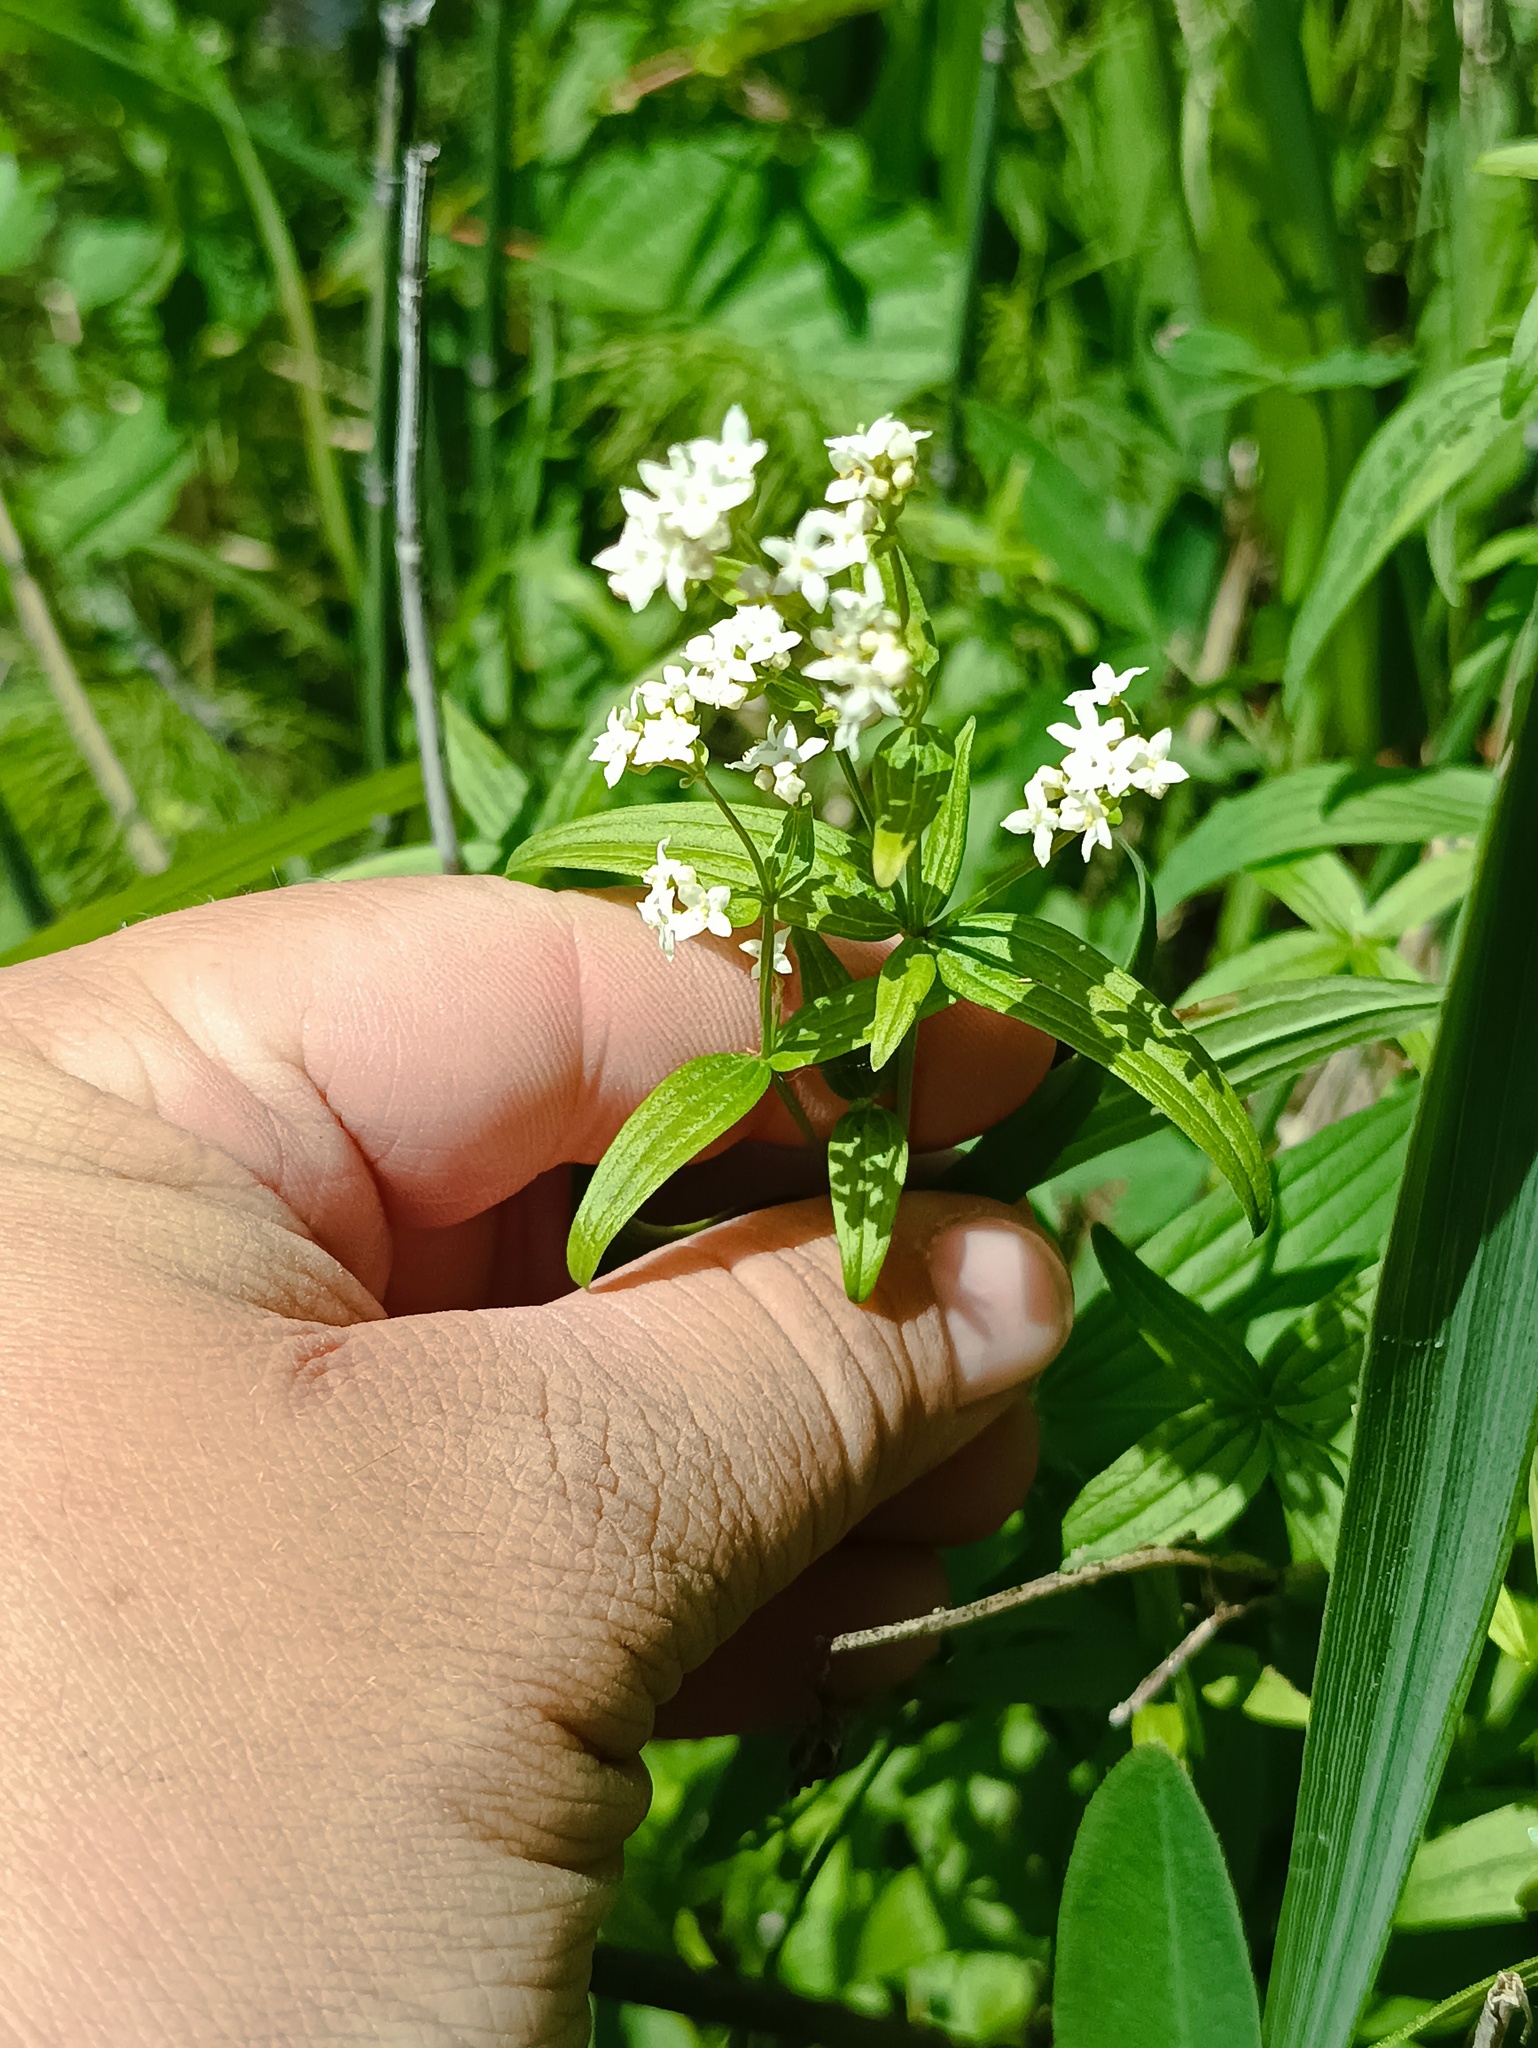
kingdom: Plantae
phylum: Tracheophyta
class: Magnoliopsida
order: Gentianales
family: Rubiaceae
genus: Galium
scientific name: Galium rubioides
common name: European bedstraw
